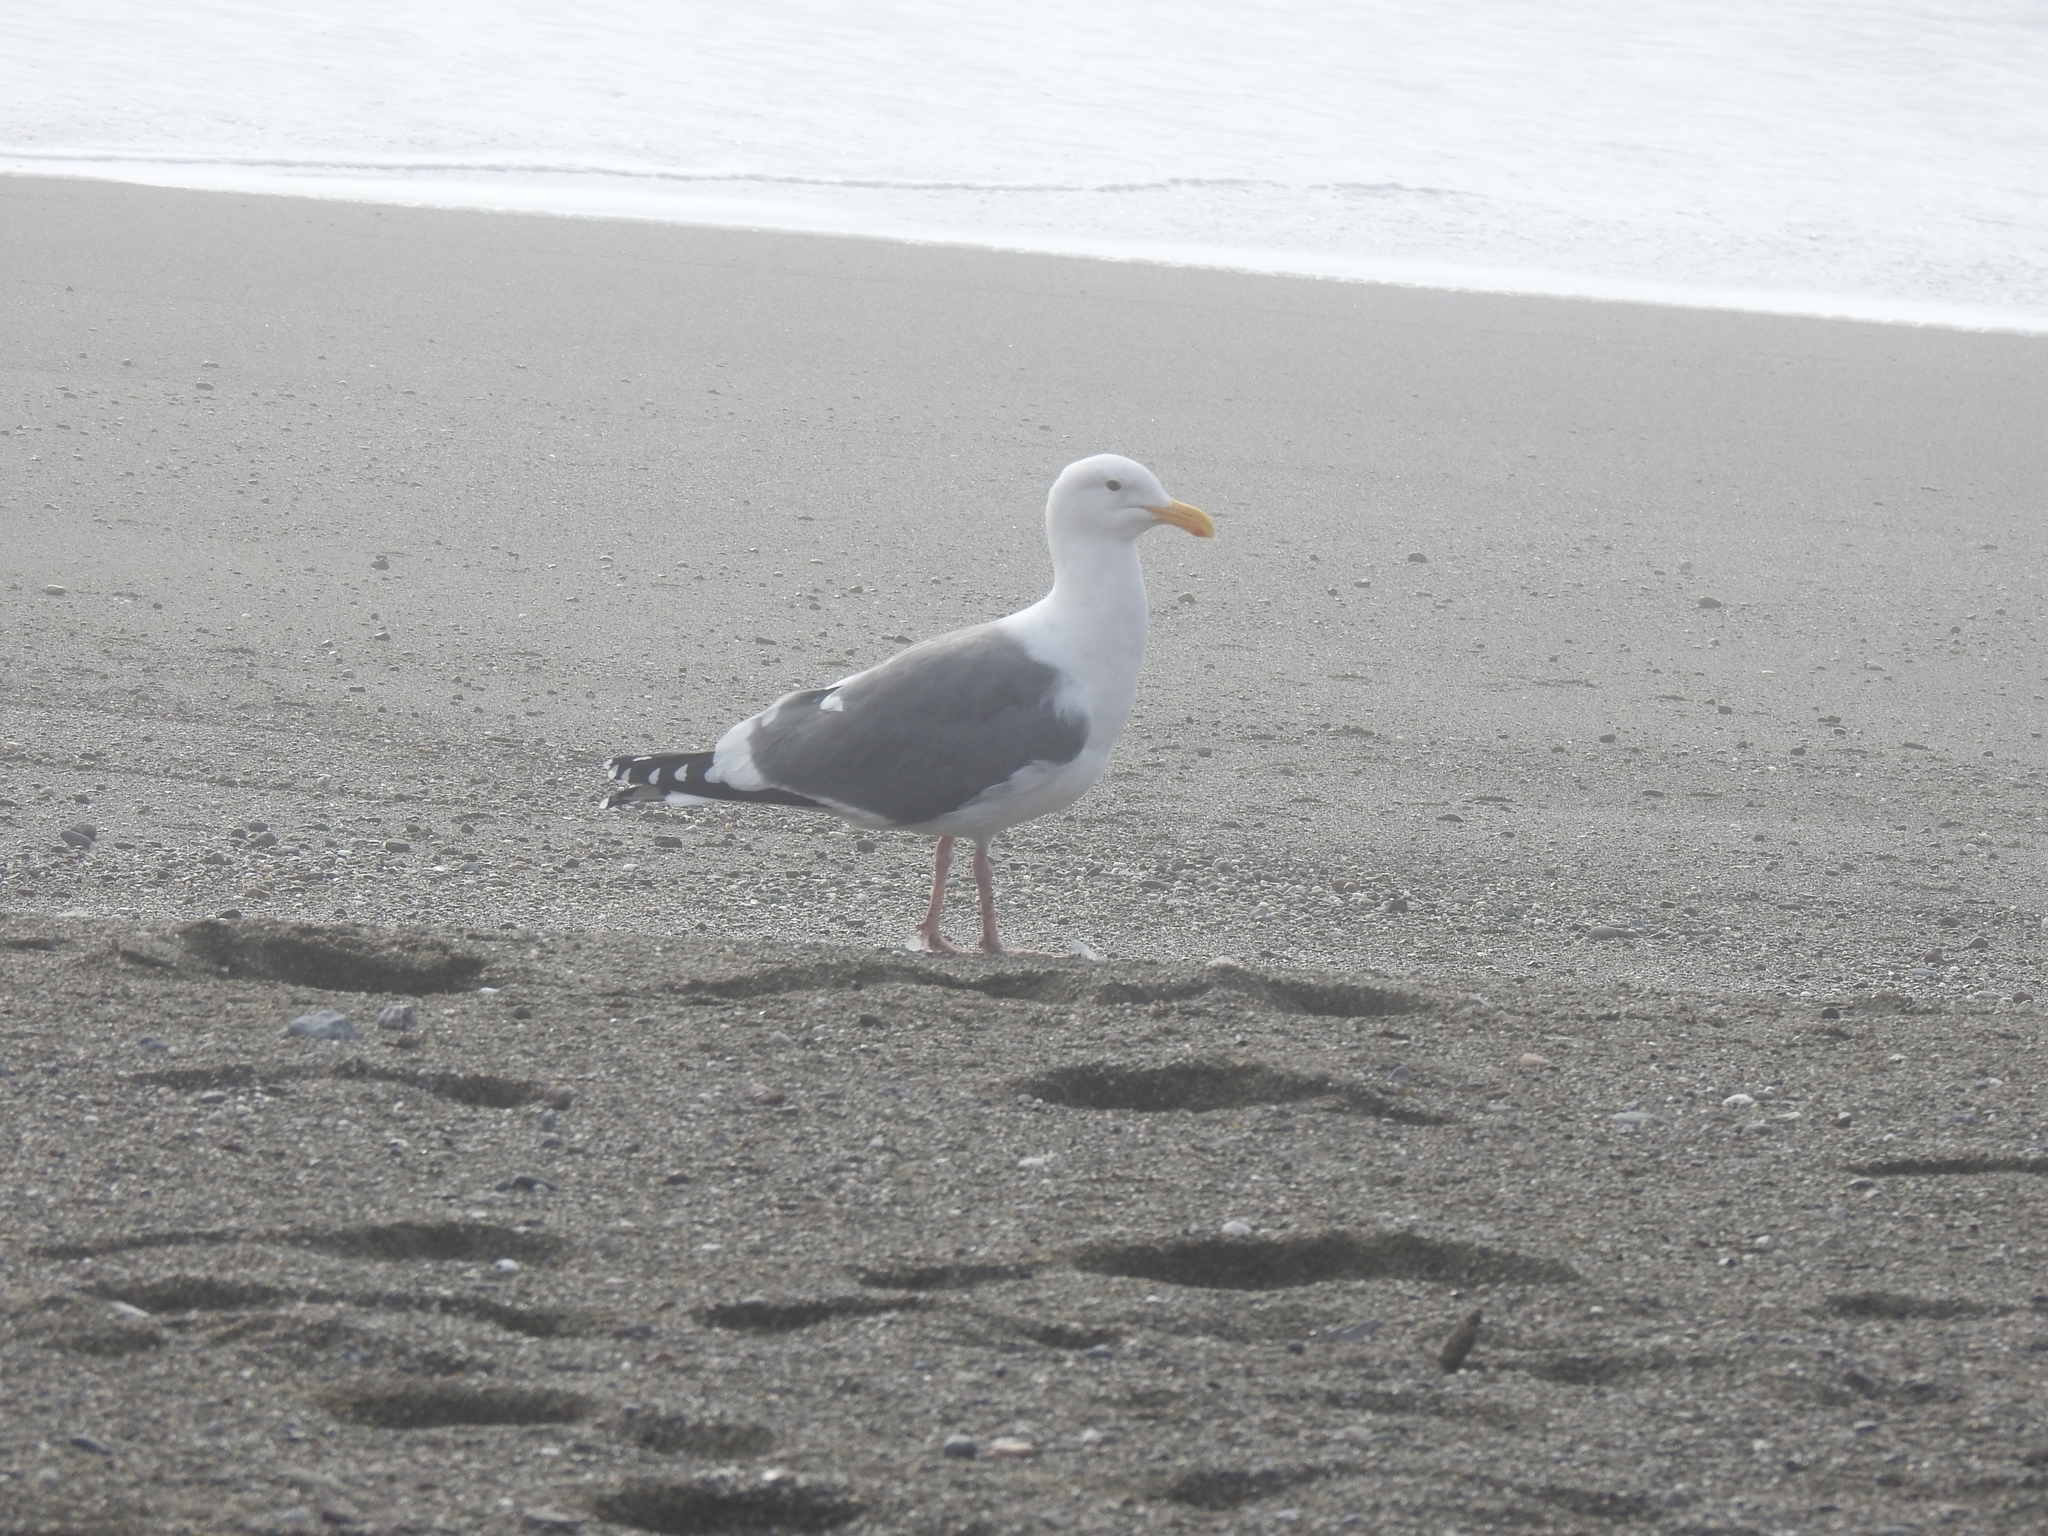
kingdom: Animalia
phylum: Chordata
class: Aves
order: Charadriiformes
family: Laridae
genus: Larus
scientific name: Larus occidentalis
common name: Western gull
